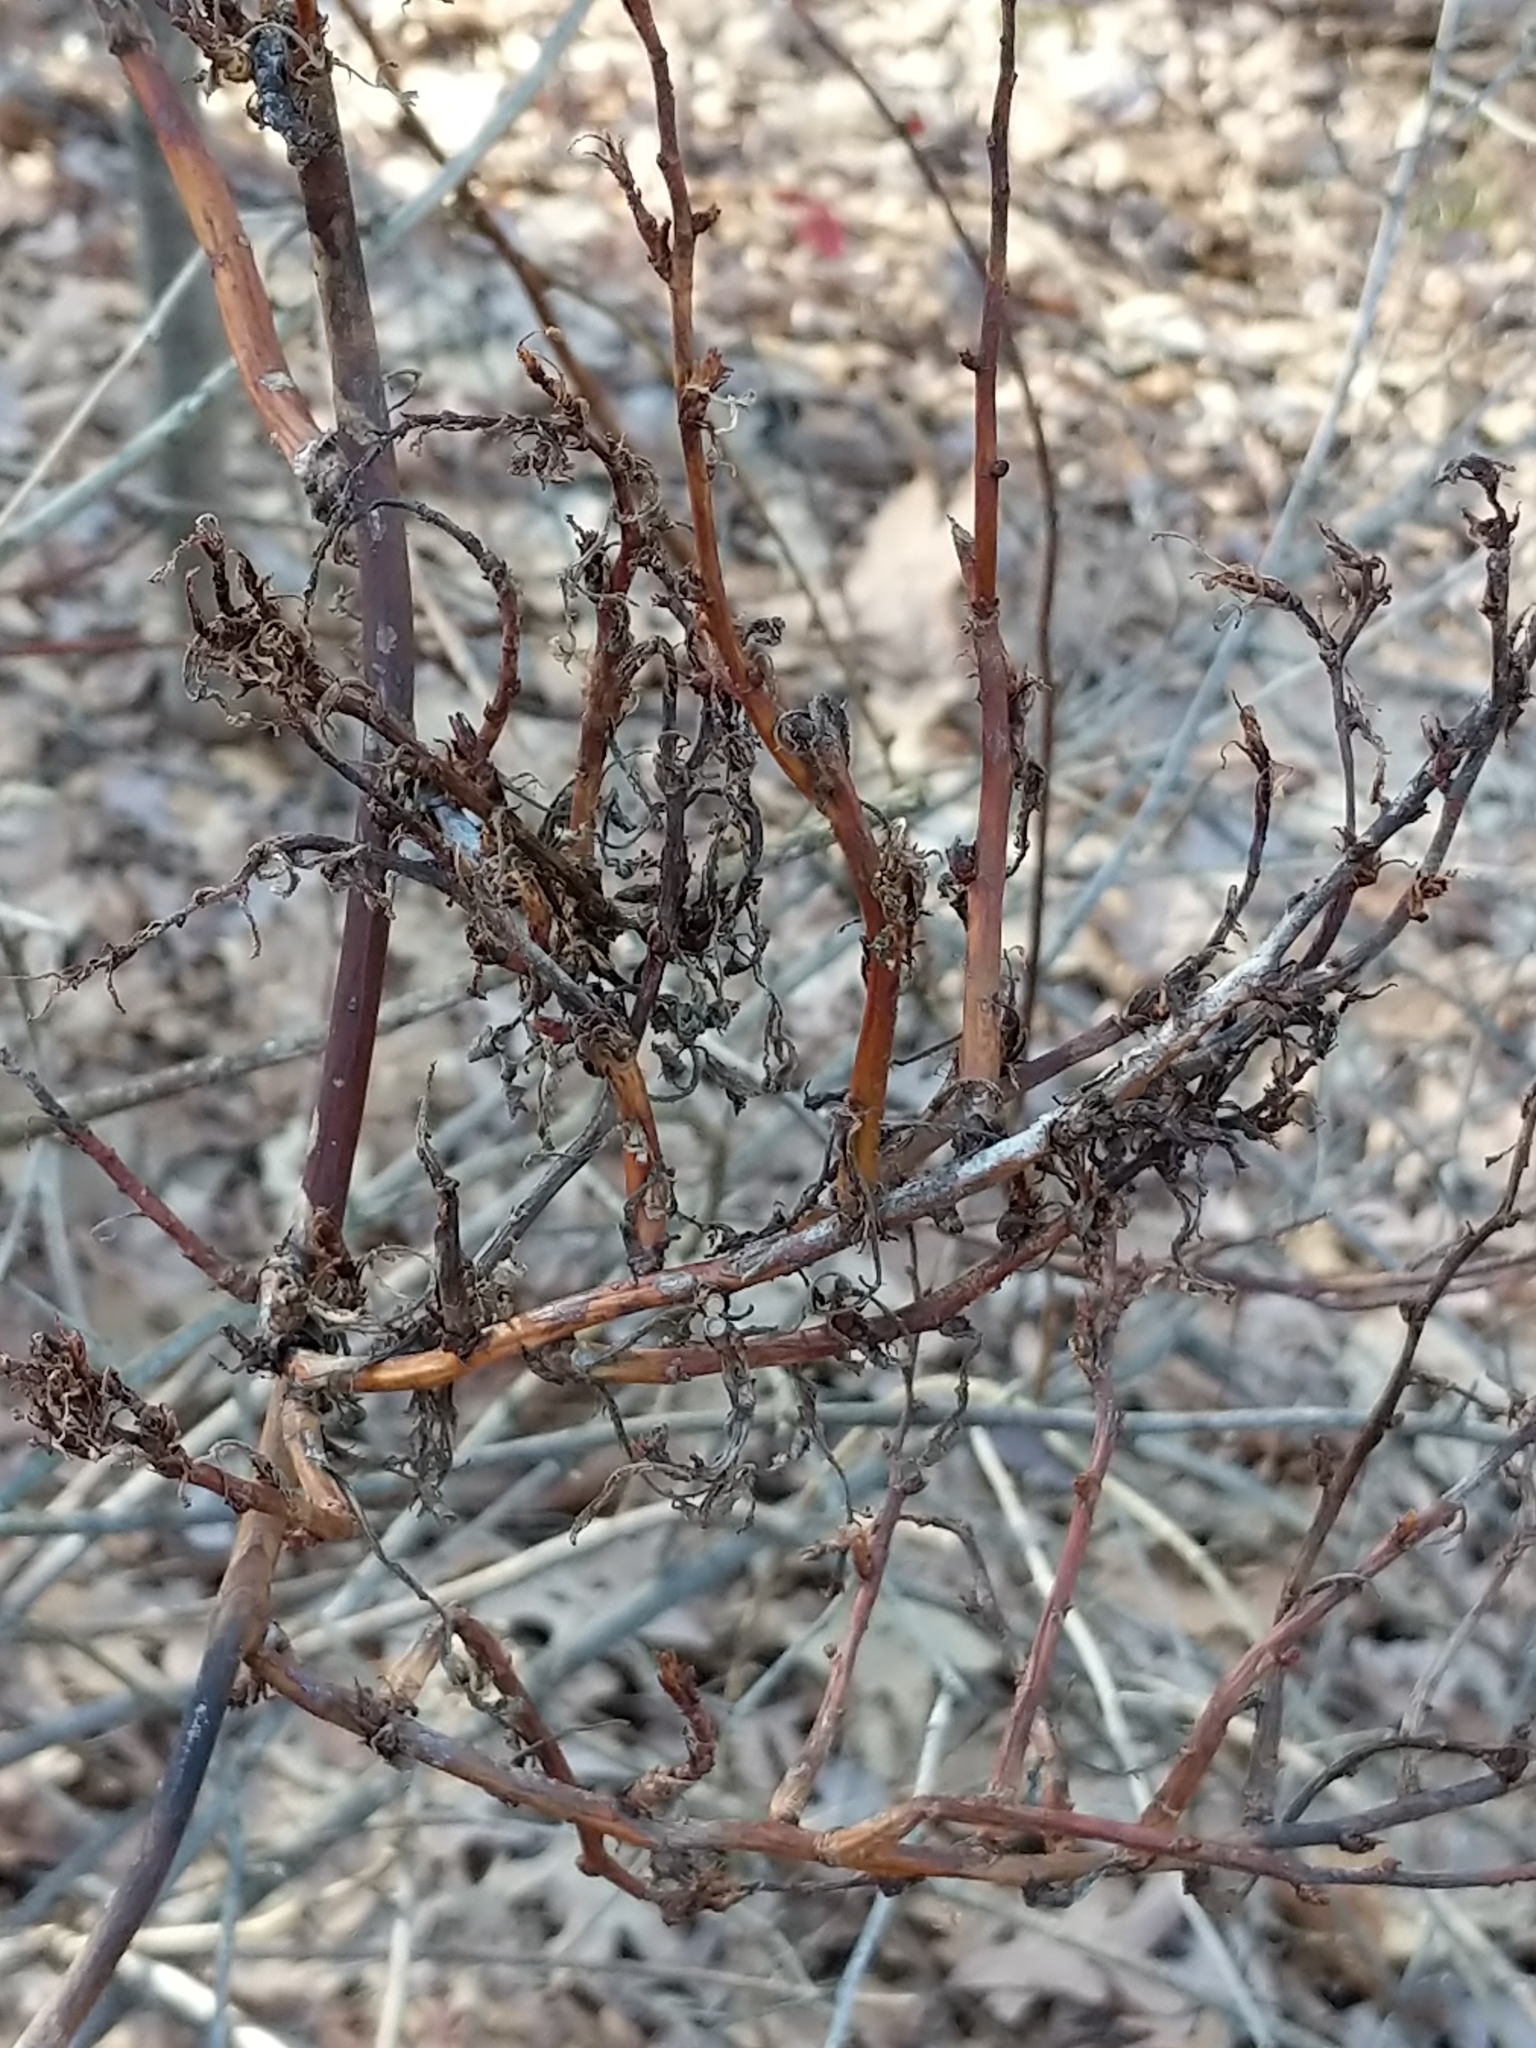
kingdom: Viruses
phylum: Negarnaviricota
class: Ellioviricetes
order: Bunyavirales
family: Fimoviridae
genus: Emaravirus
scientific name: Emaravirus rosae
